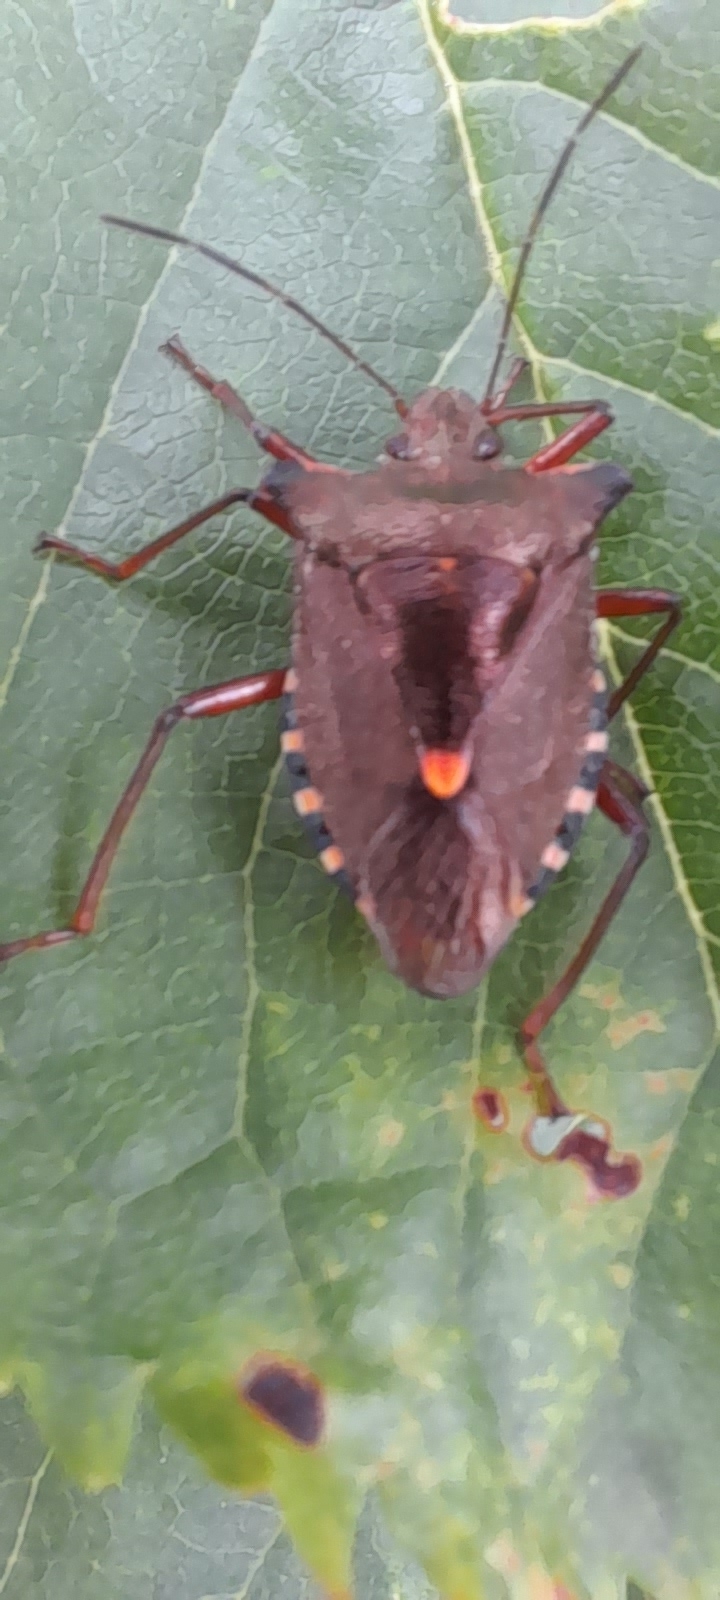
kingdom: Animalia
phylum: Arthropoda
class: Insecta
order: Hemiptera
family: Pentatomidae
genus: Pentatoma
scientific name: Pentatoma rufipes
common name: Forest bug
